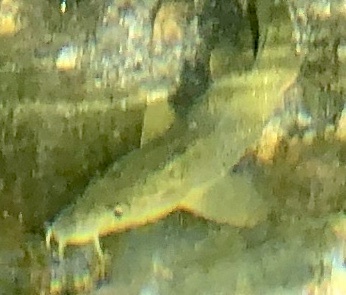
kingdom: Animalia
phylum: Chordata
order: Cypriniformes
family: Cyprinidae
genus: Barbus
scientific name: Barbus barbus
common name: Barbel
